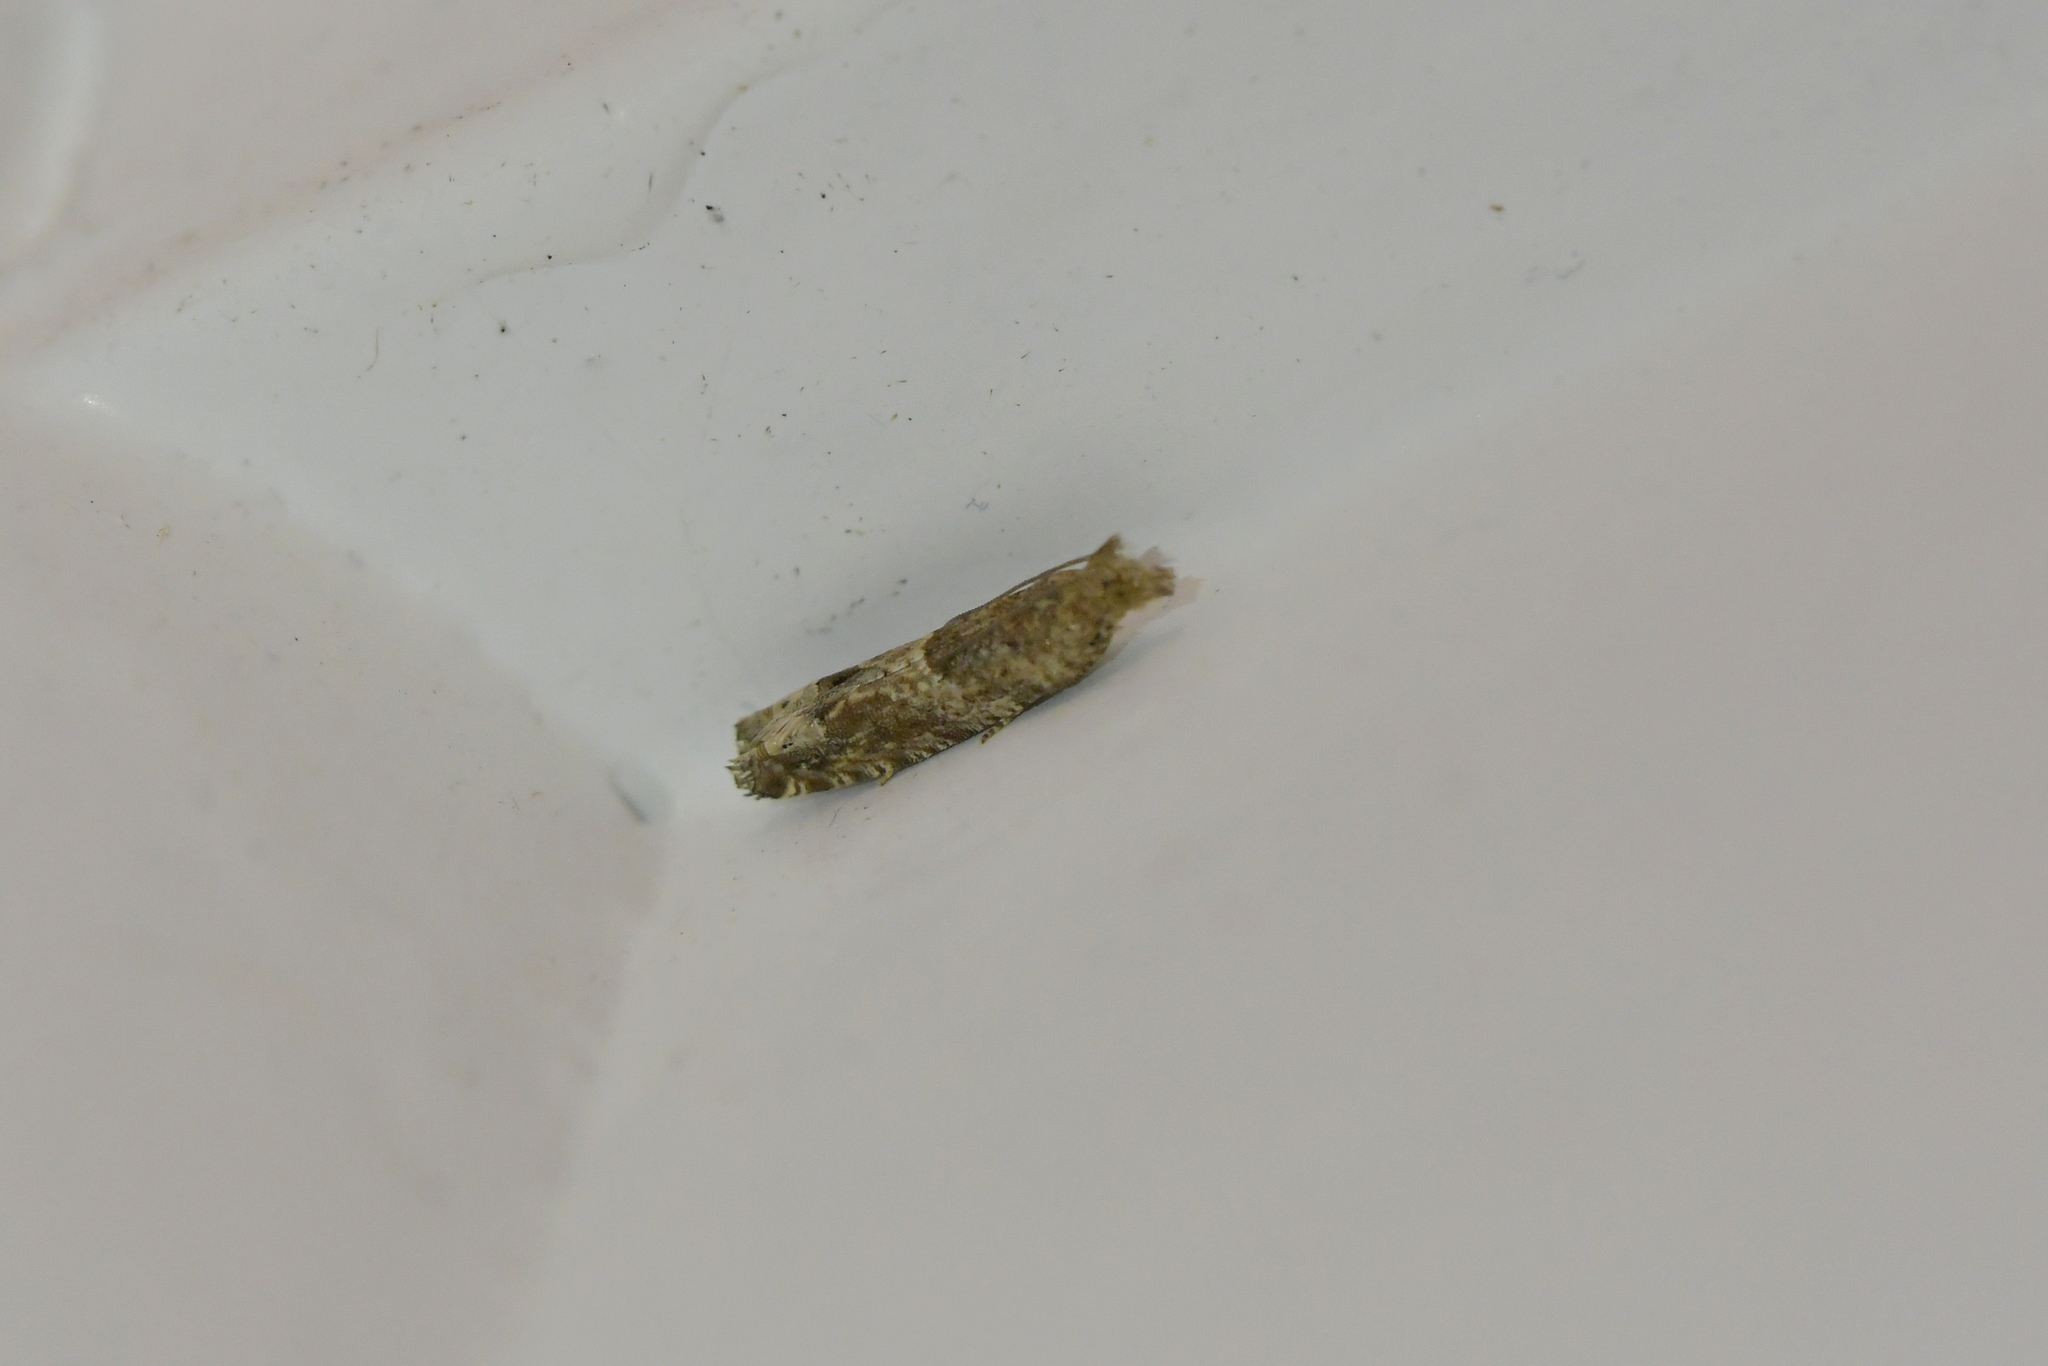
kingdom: Animalia
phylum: Arthropoda
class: Insecta
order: Lepidoptera
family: Tortricidae
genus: Crocidosema
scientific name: Crocidosema plebejana
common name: Southern bell
